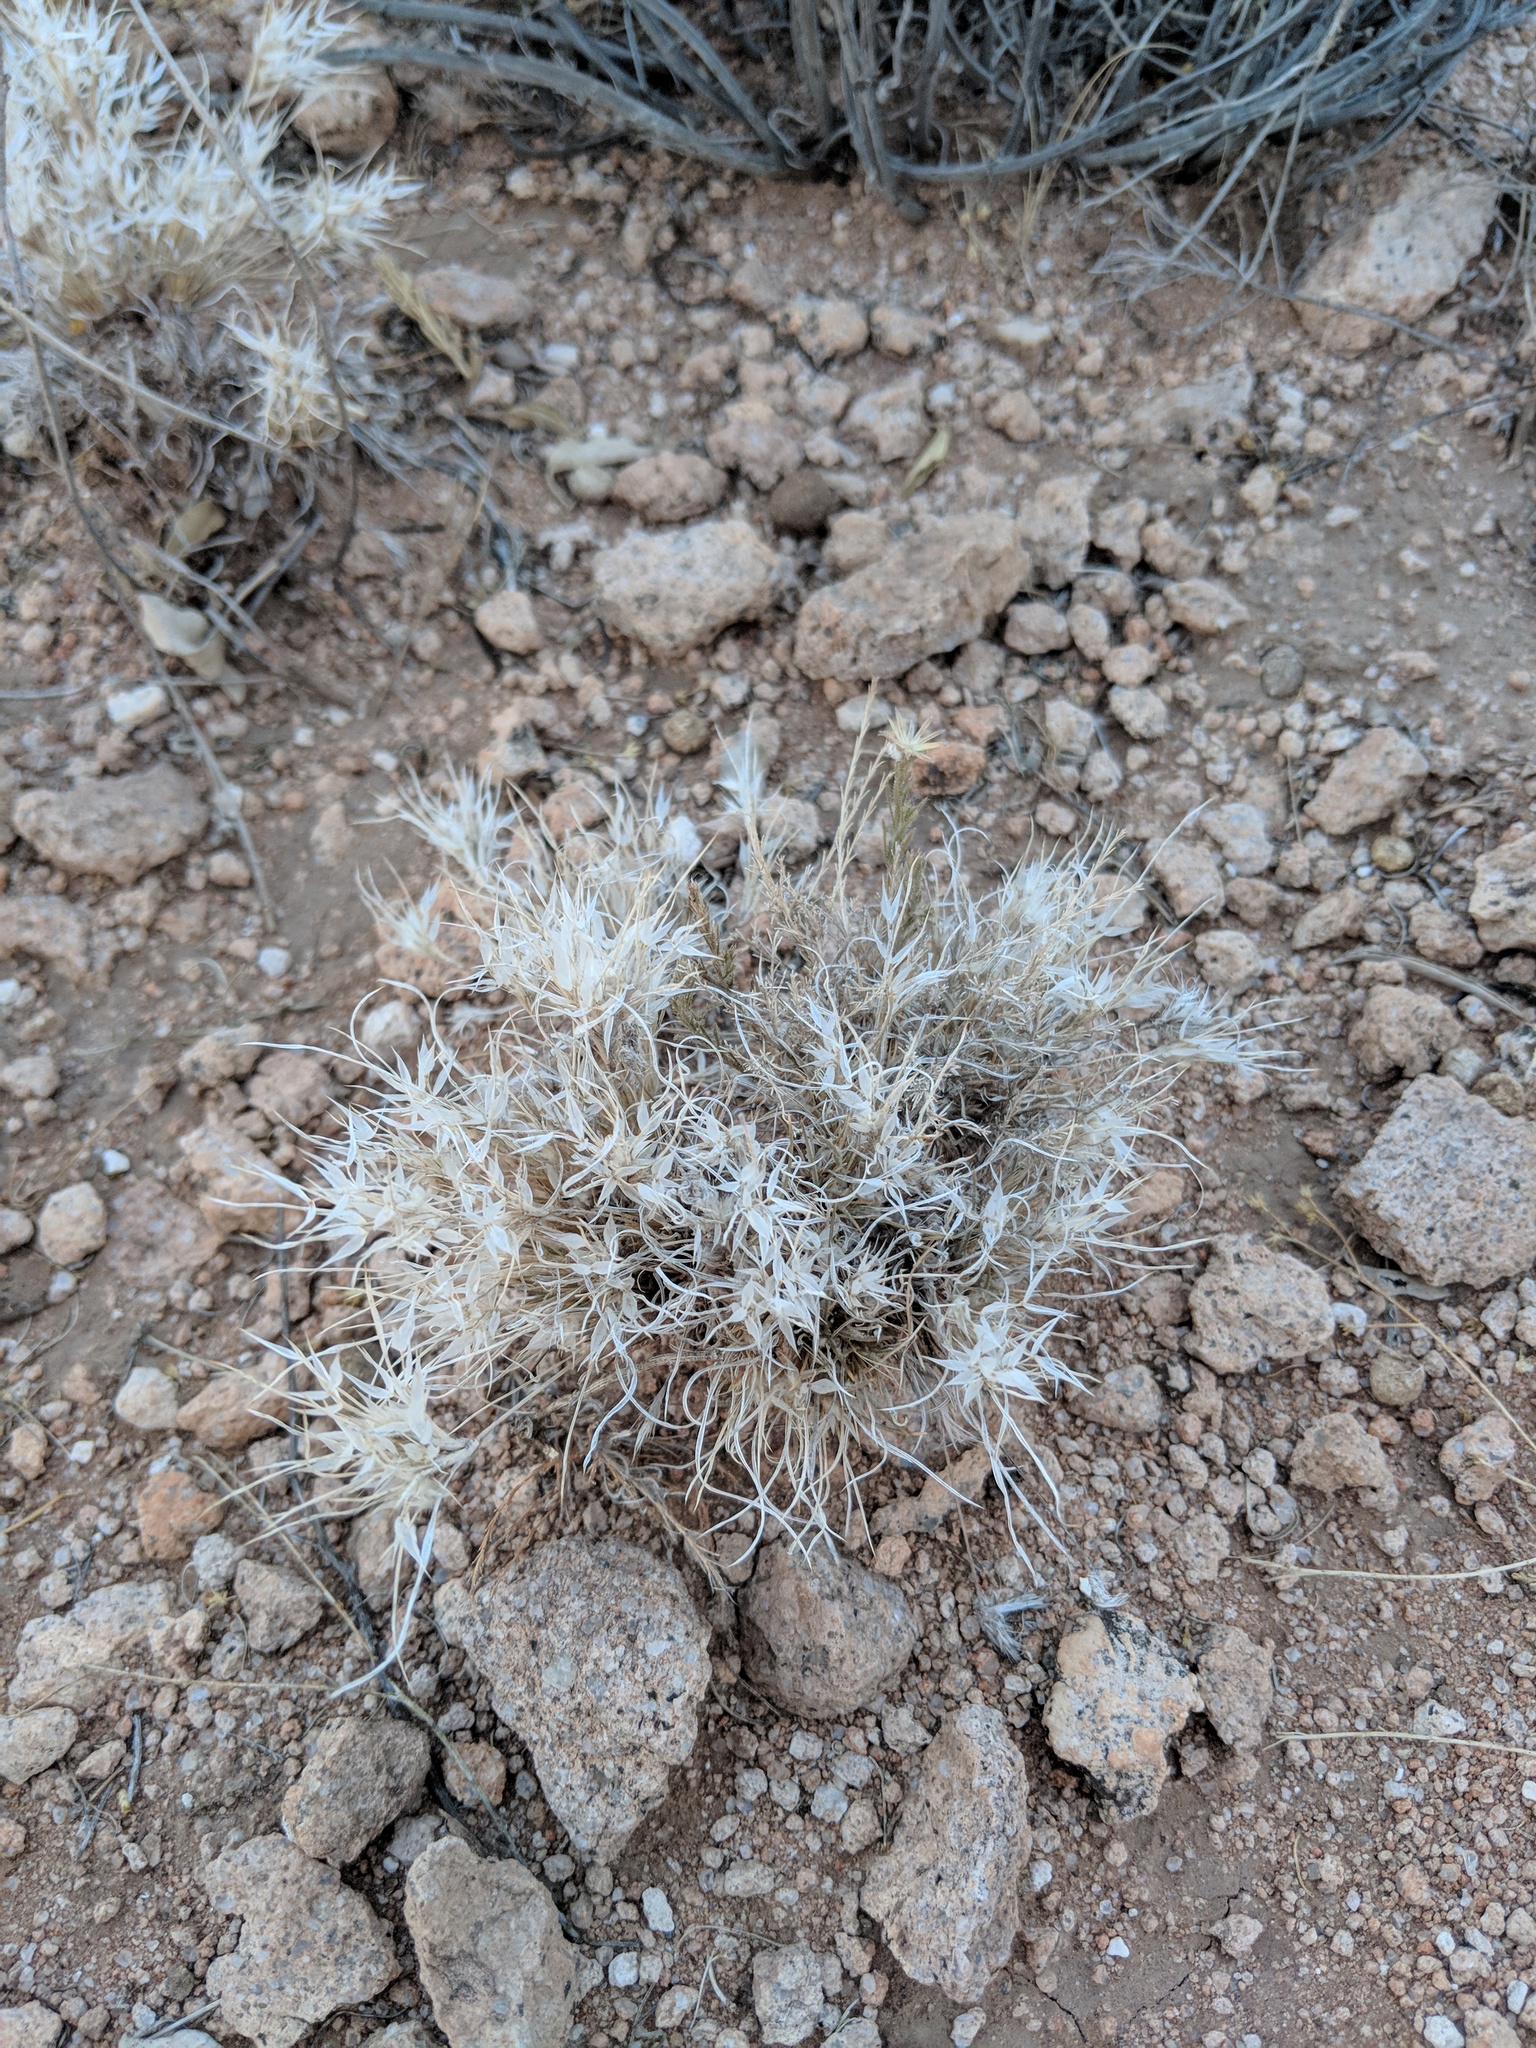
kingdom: Plantae
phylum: Tracheophyta
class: Liliopsida
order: Poales
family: Poaceae
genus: Dasyochloa
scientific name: Dasyochloa pulchella
